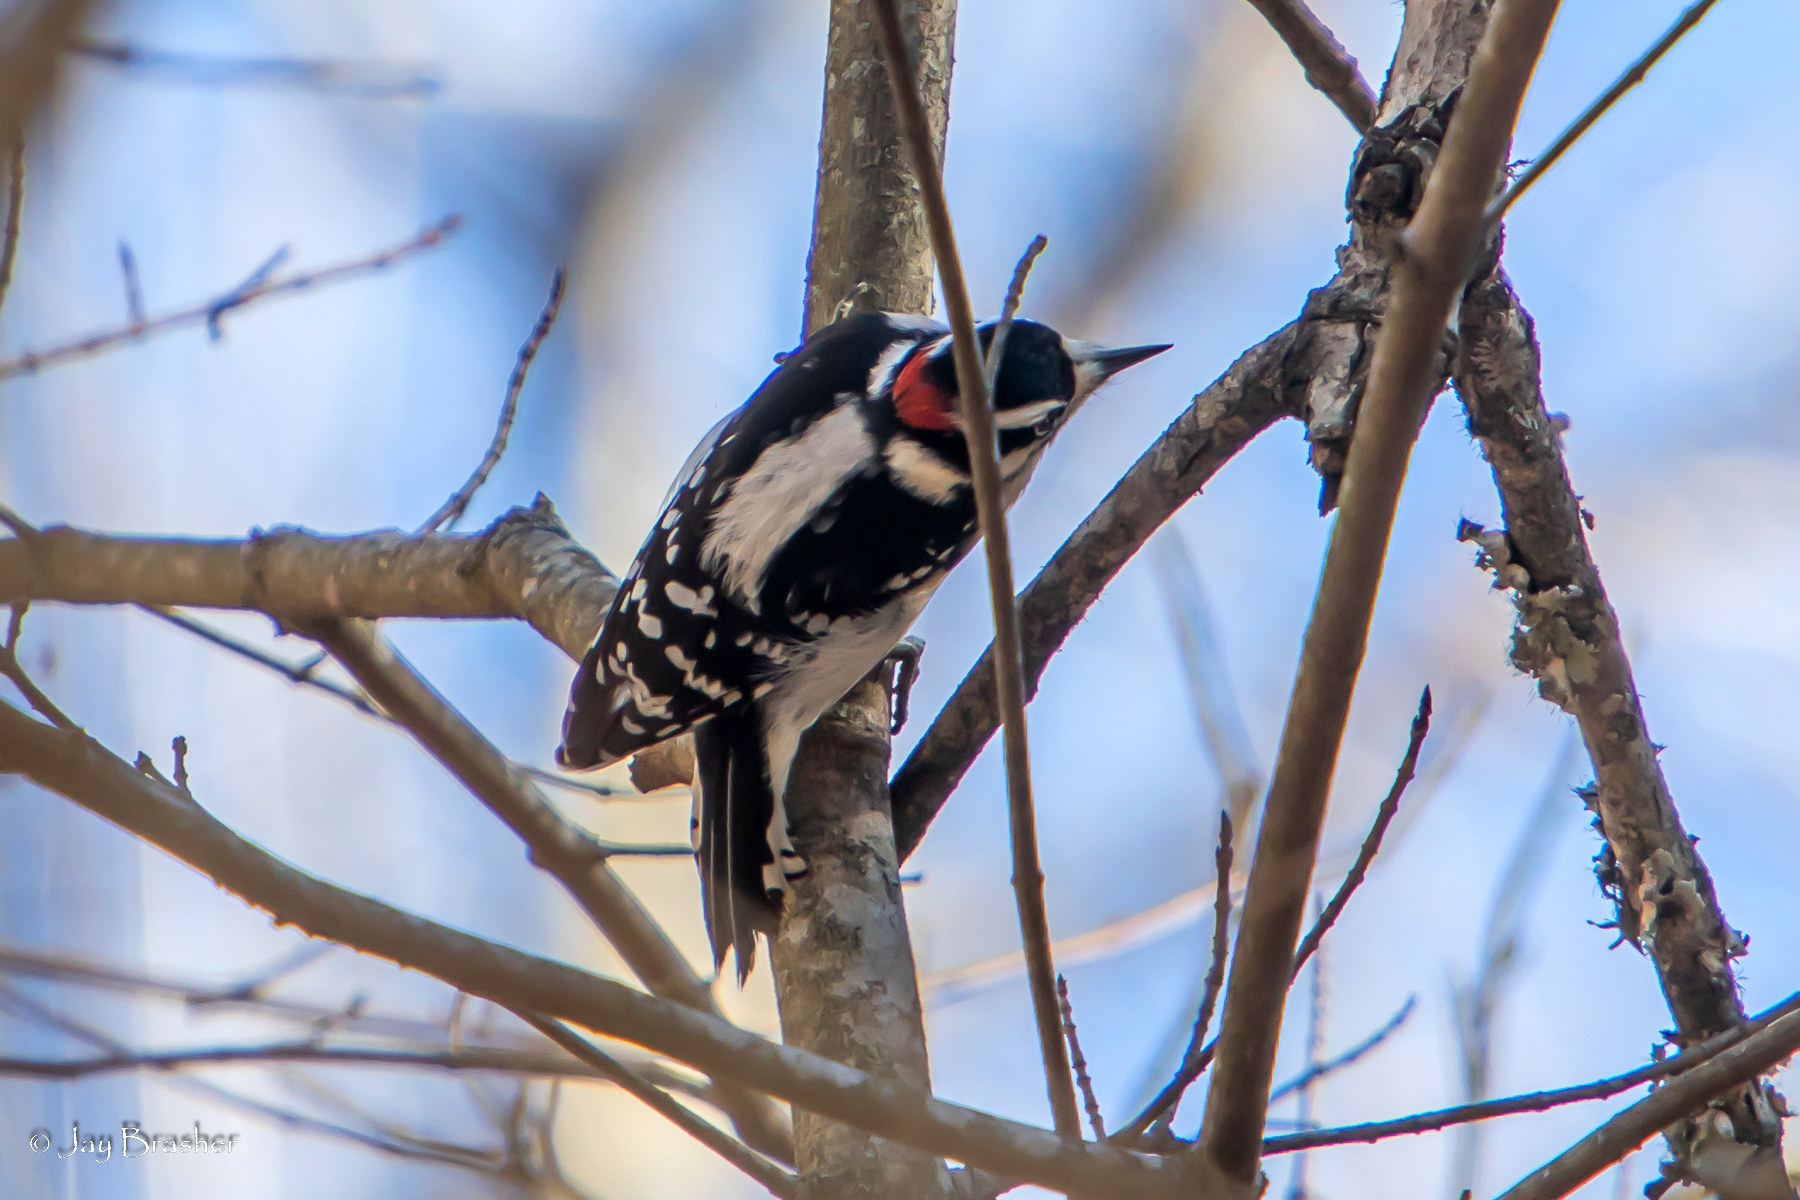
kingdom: Animalia
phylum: Chordata
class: Aves
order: Piciformes
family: Picidae
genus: Dryobates
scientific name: Dryobates pubescens
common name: Downy woodpecker
